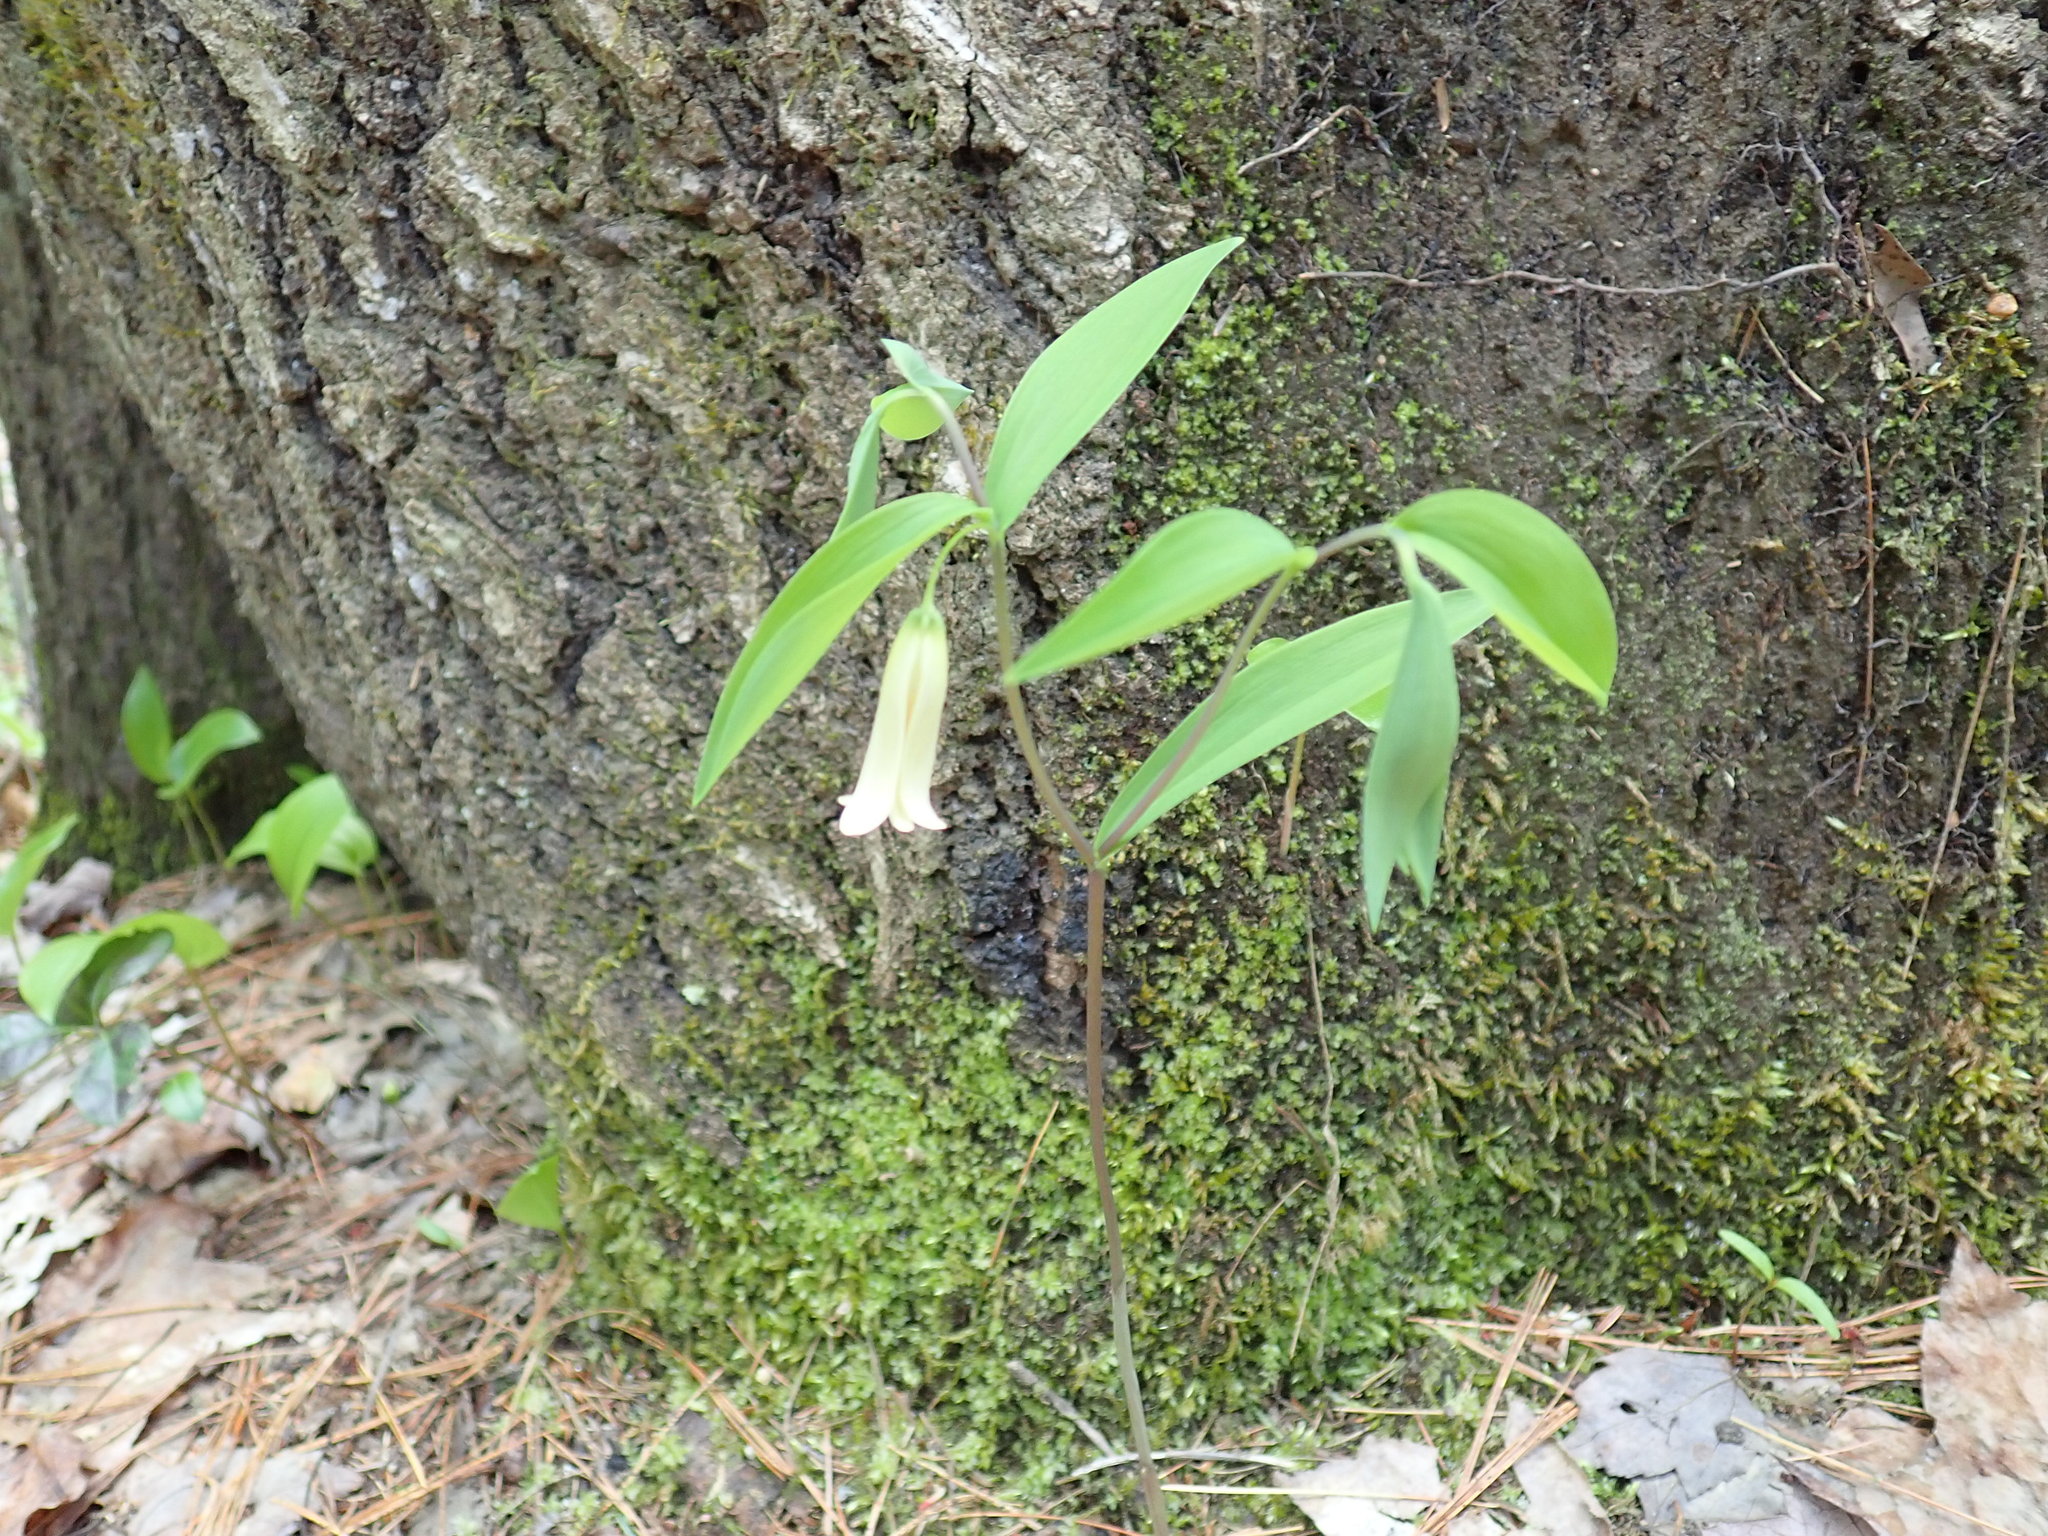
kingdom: Plantae
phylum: Tracheophyta
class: Liliopsida
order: Liliales
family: Colchicaceae
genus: Uvularia
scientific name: Uvularia sessilifolia
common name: Straw-lily
